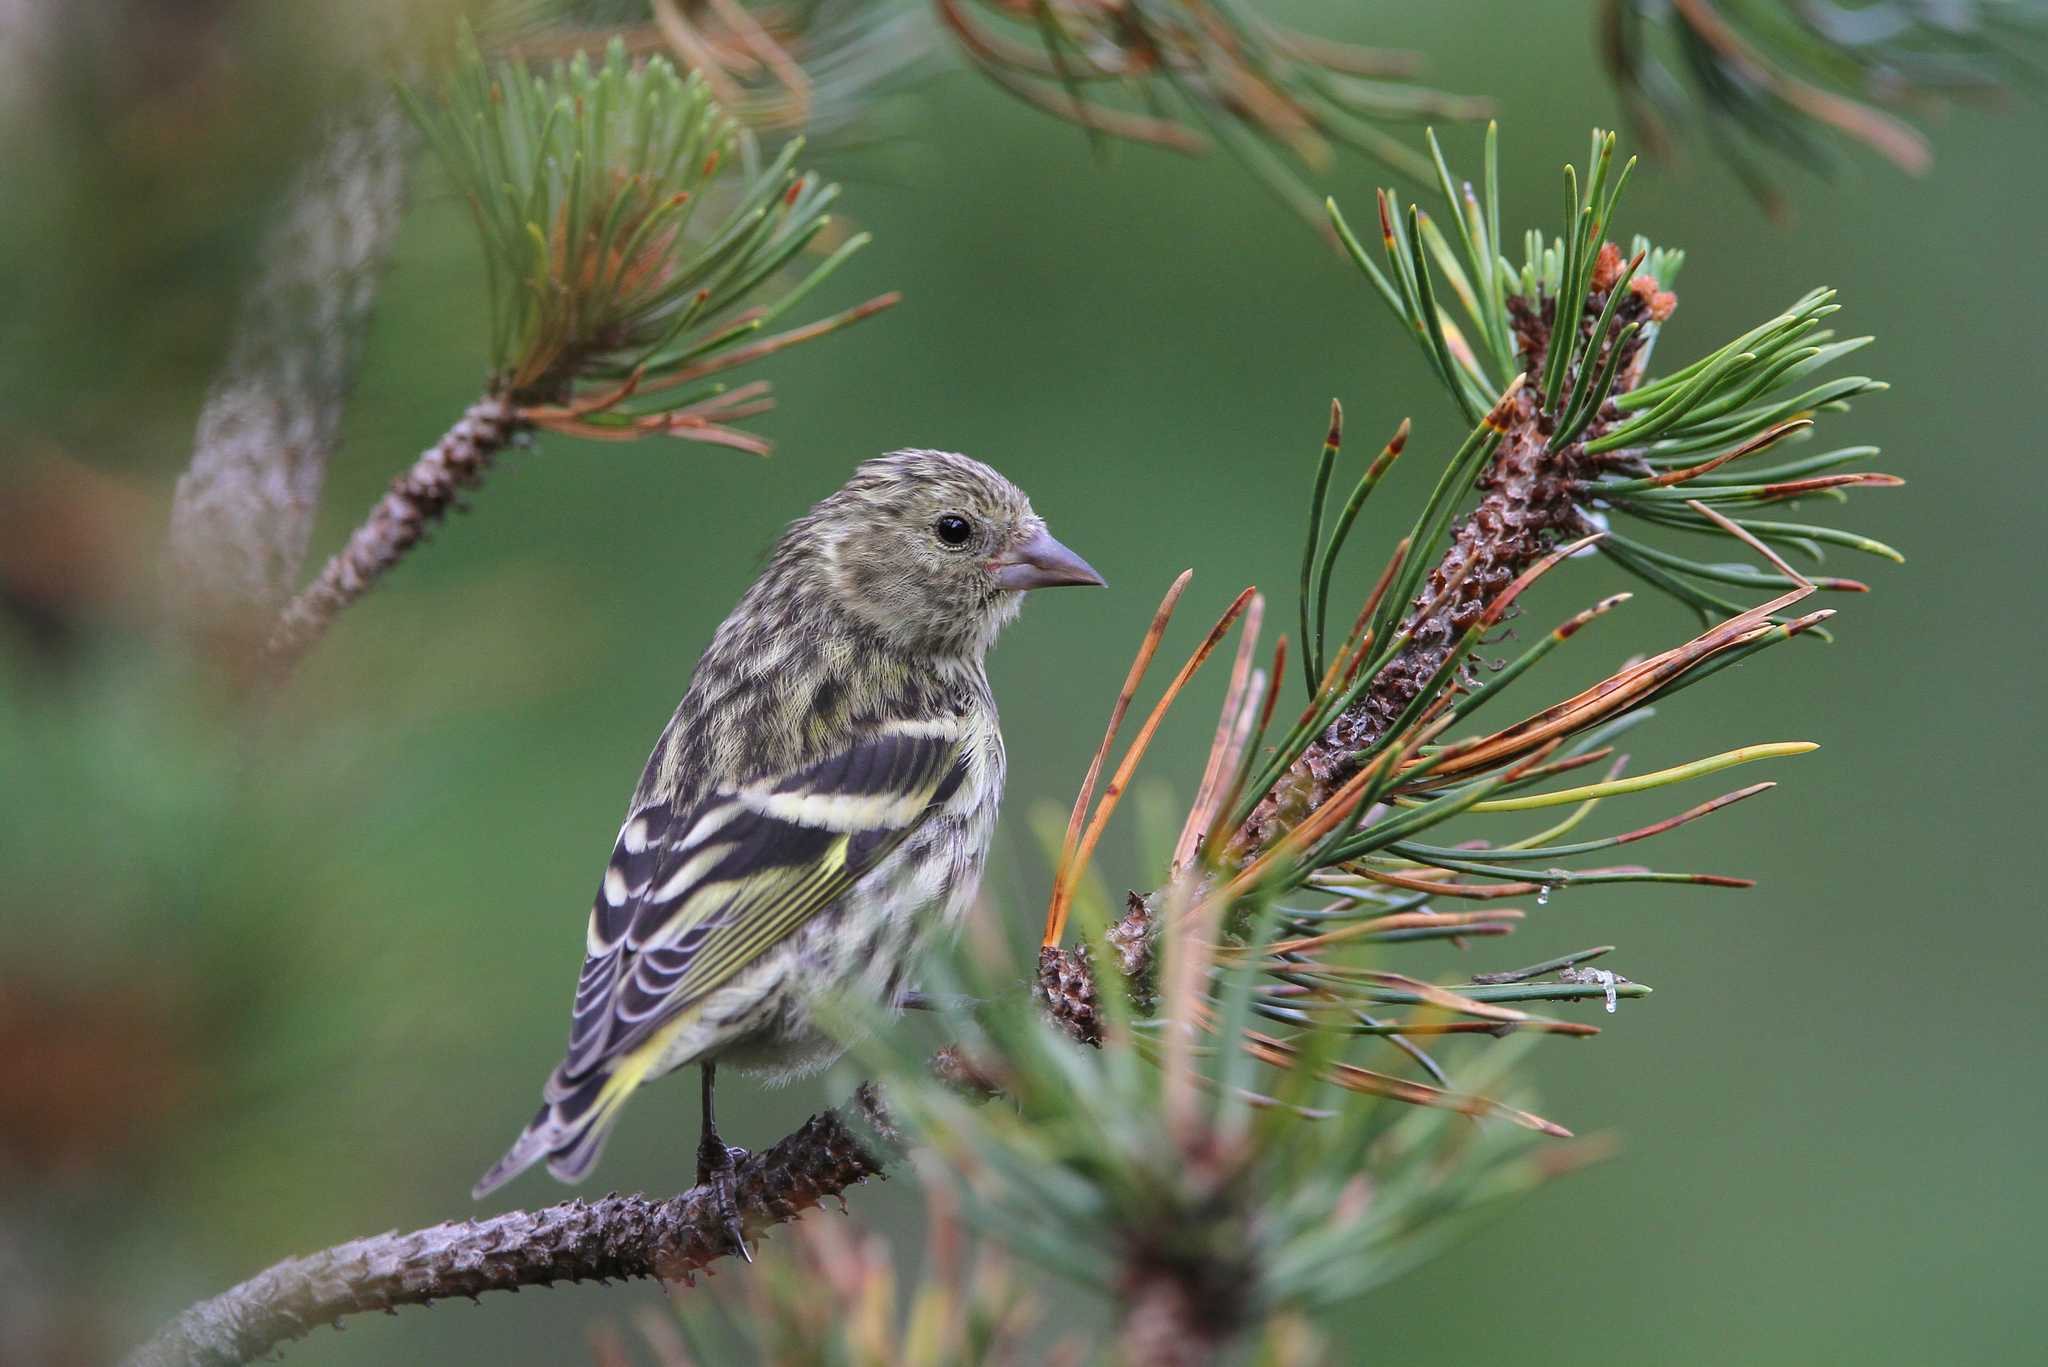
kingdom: Animalia
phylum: Chordata
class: Aves
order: Passeriformes
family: Fringillidae
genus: Spinus
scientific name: Spinus spinus
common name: Eurasian siskin
